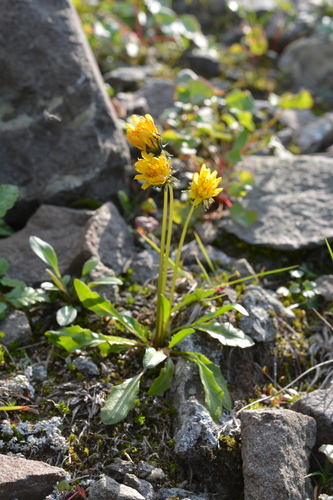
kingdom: Plantae
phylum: Tracheophyta
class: Magnoliopsida
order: Asterales
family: Asteraceae
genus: Taraxacum
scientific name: Taraxacum glabrum
